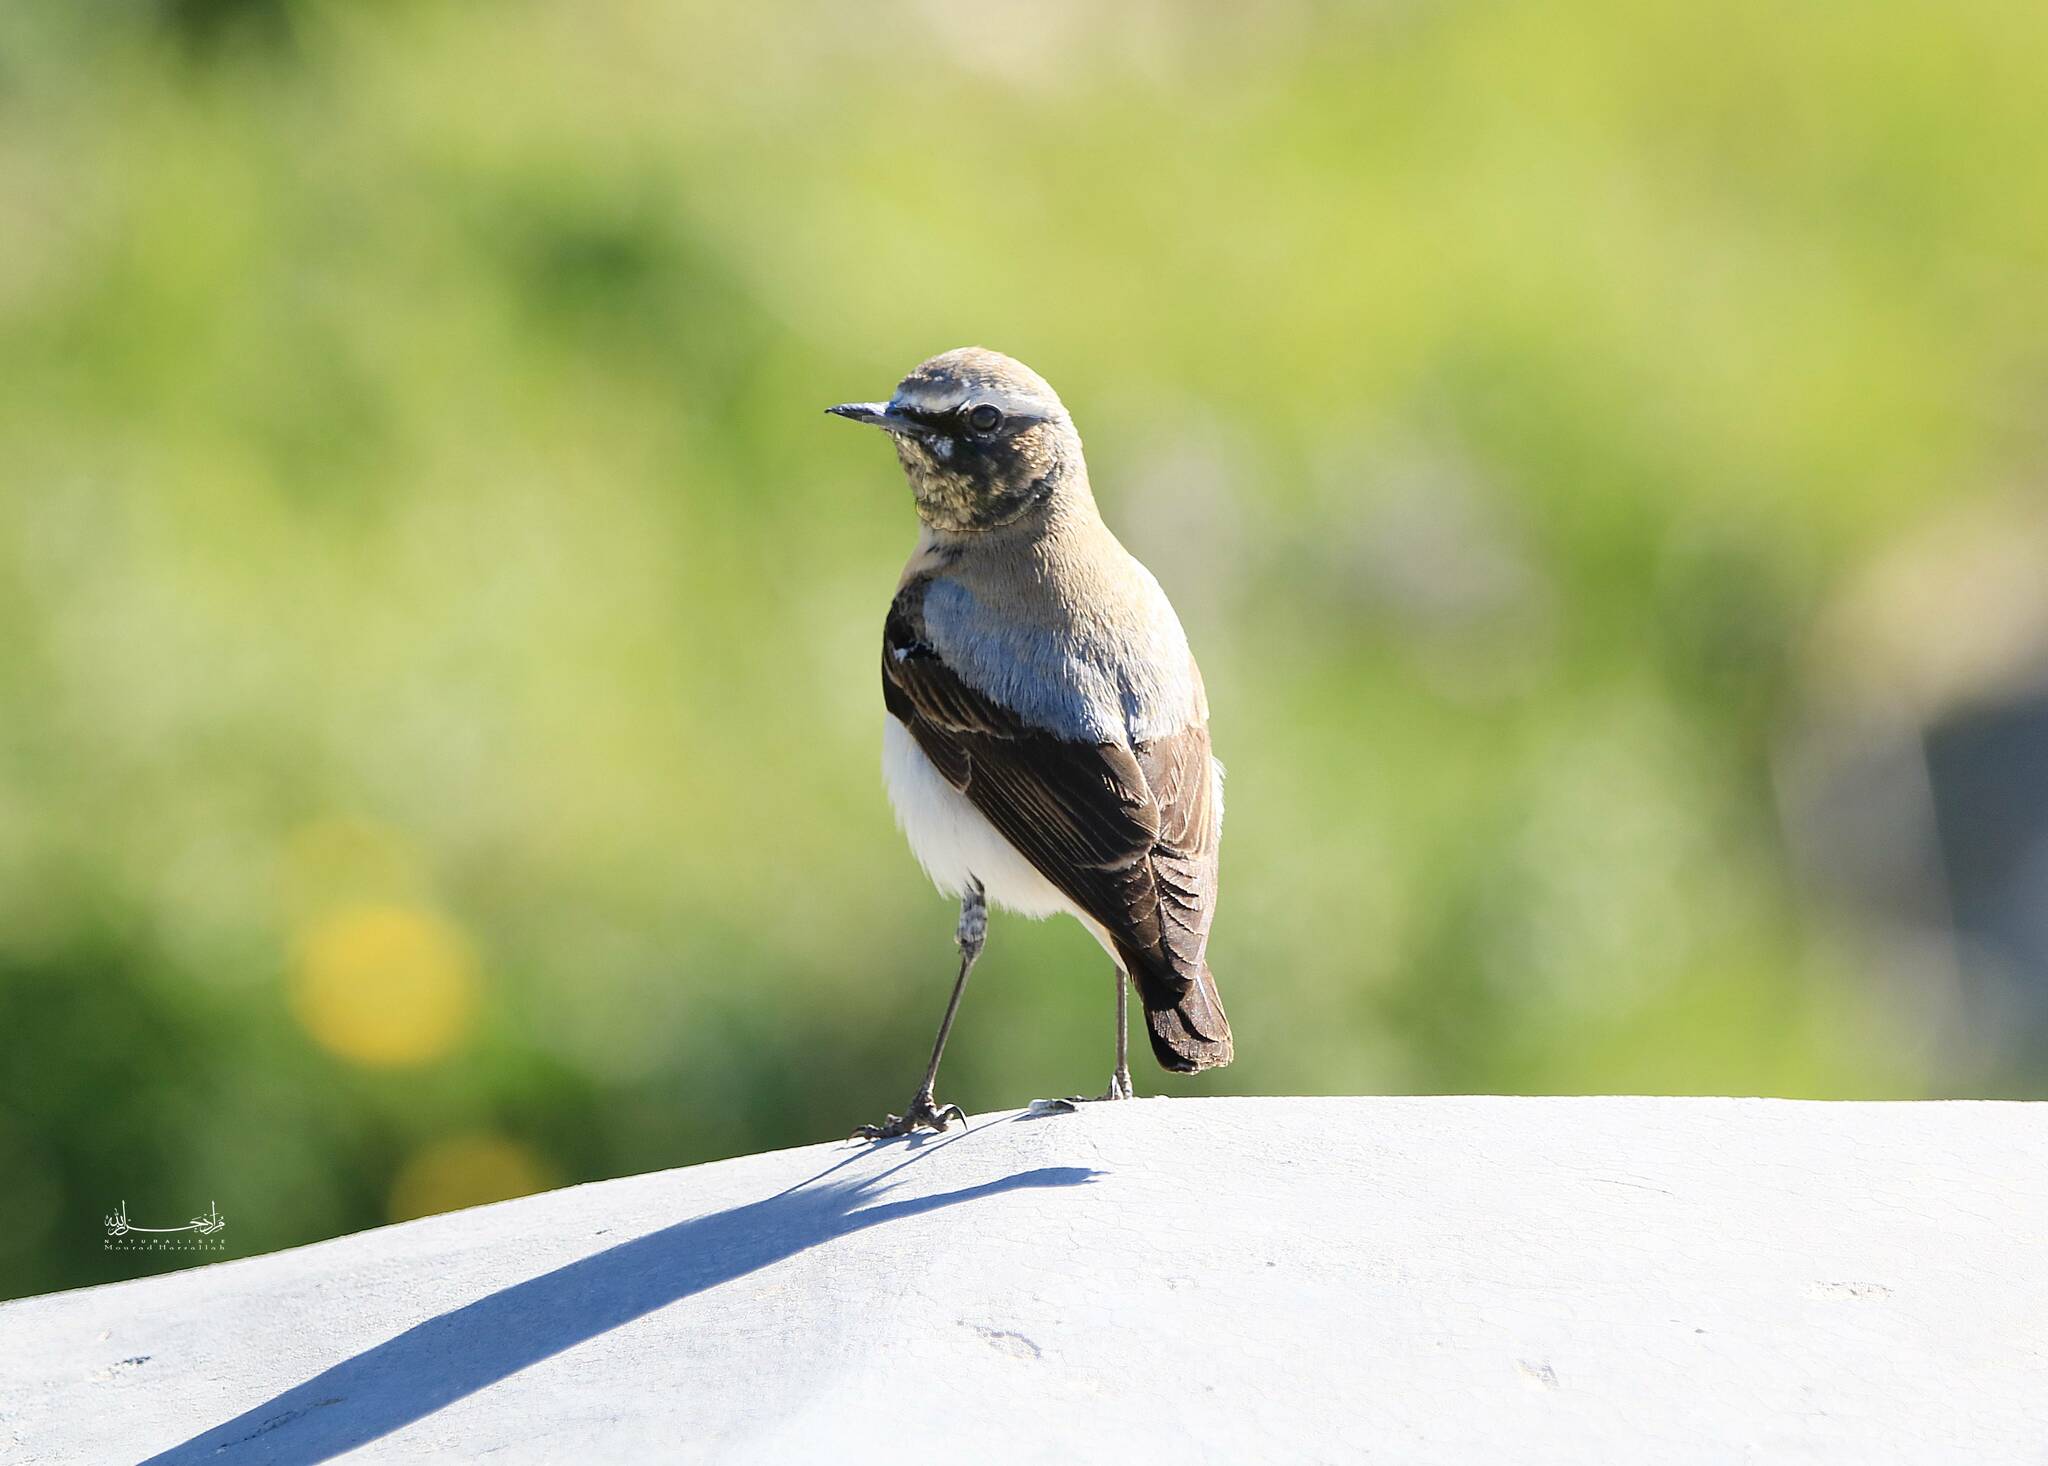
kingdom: Animalia
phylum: Chordata
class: Aves
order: Passeriformes
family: Muscicapidae
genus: Oenanthe
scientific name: Oenanthe oenanthe
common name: Northern wheatear
